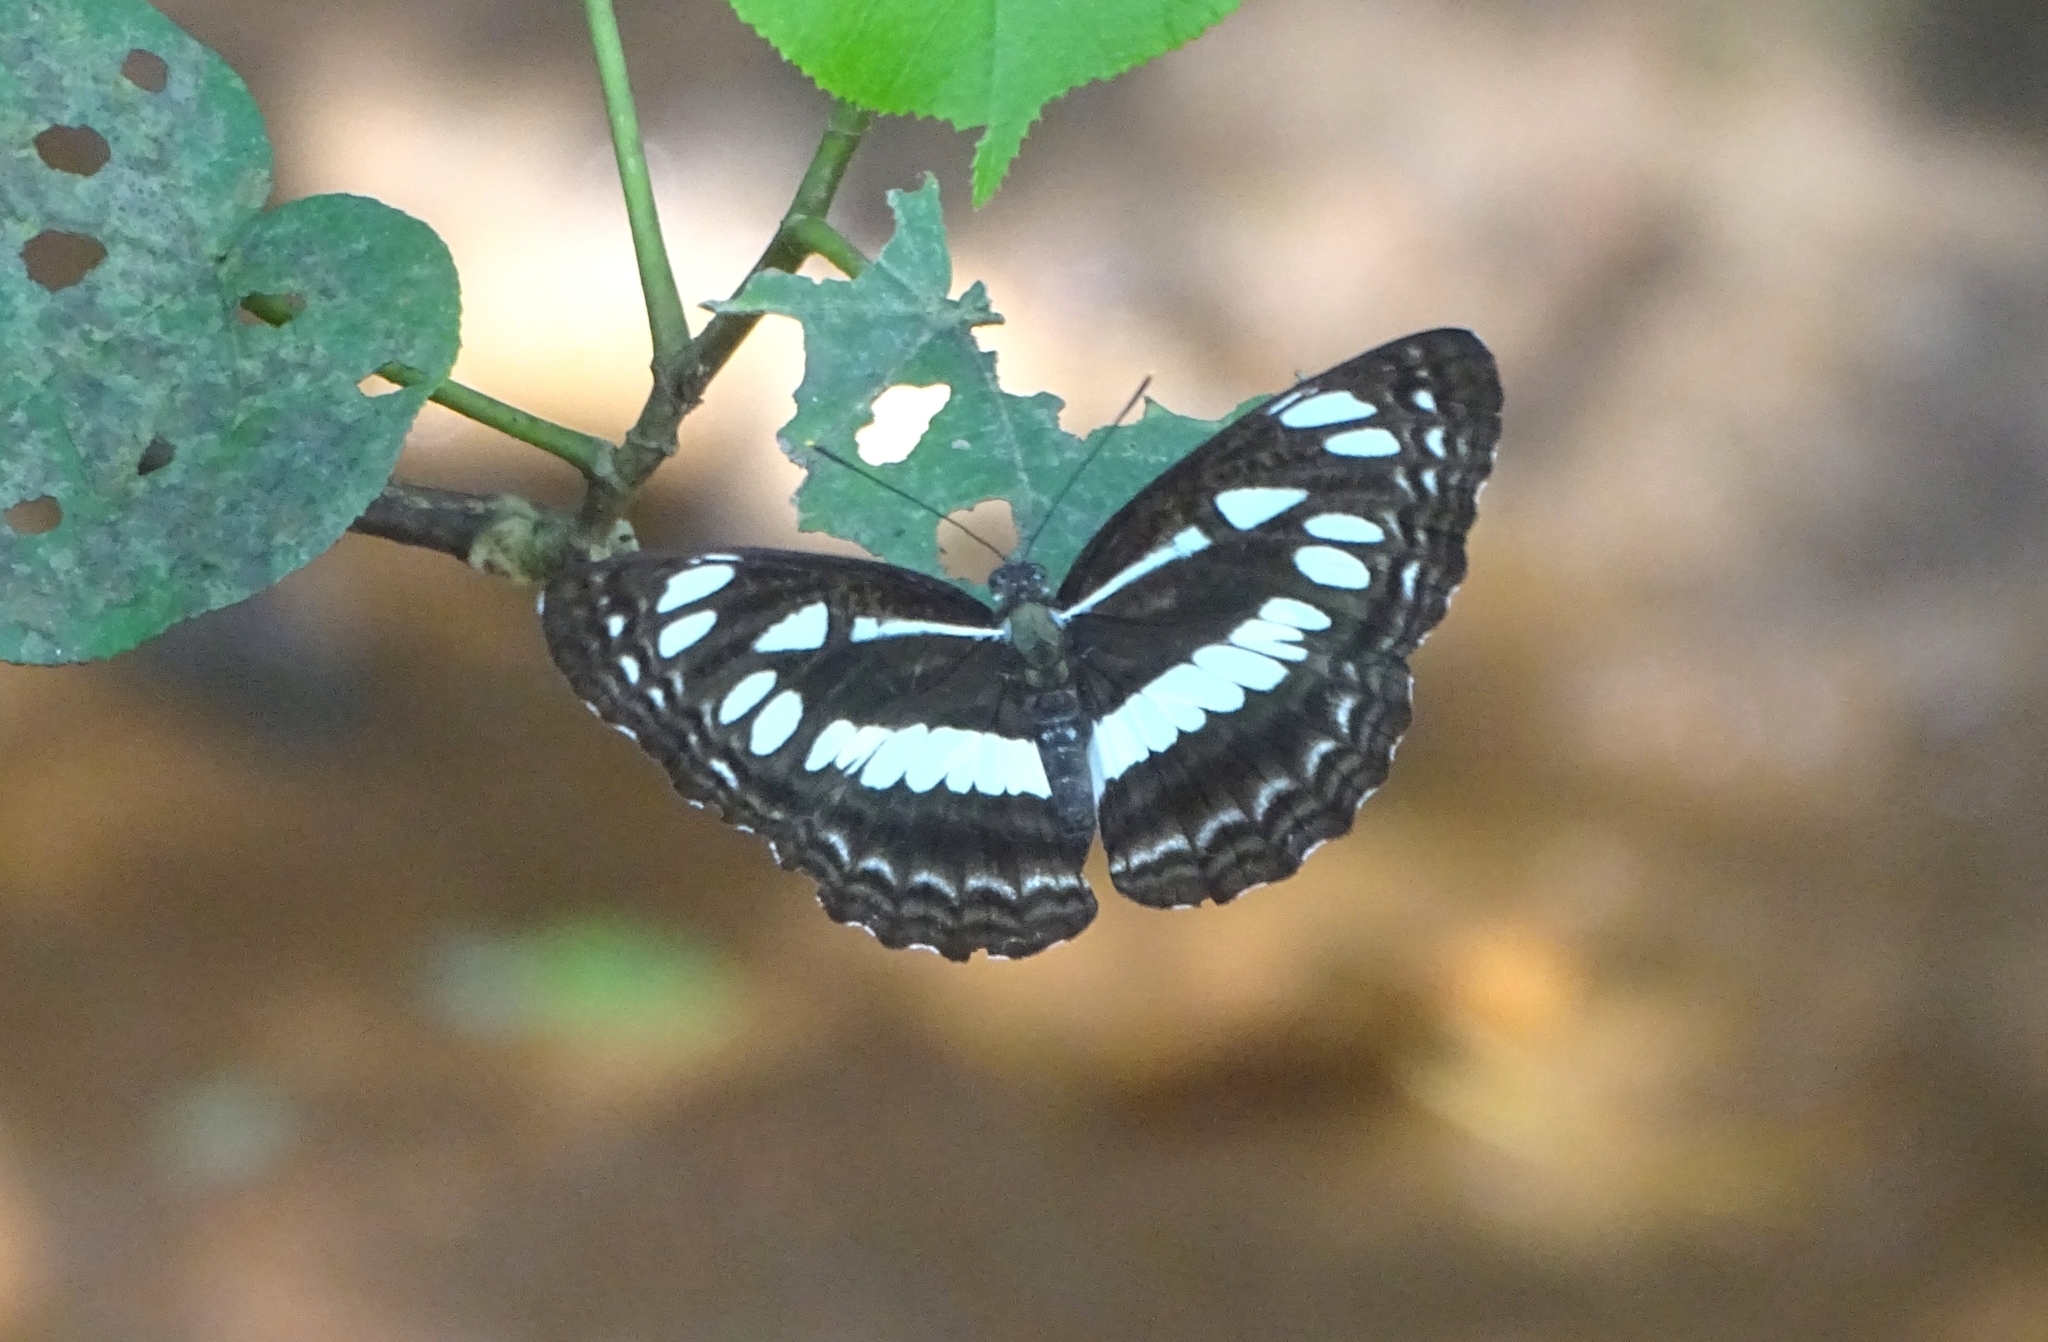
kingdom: Animalia
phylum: Arthropoda
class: Insecta
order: Lepidoptera
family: Nymphalidae
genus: Neptis
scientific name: Neptis jumbah
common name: Chestnut-streaked sailer
